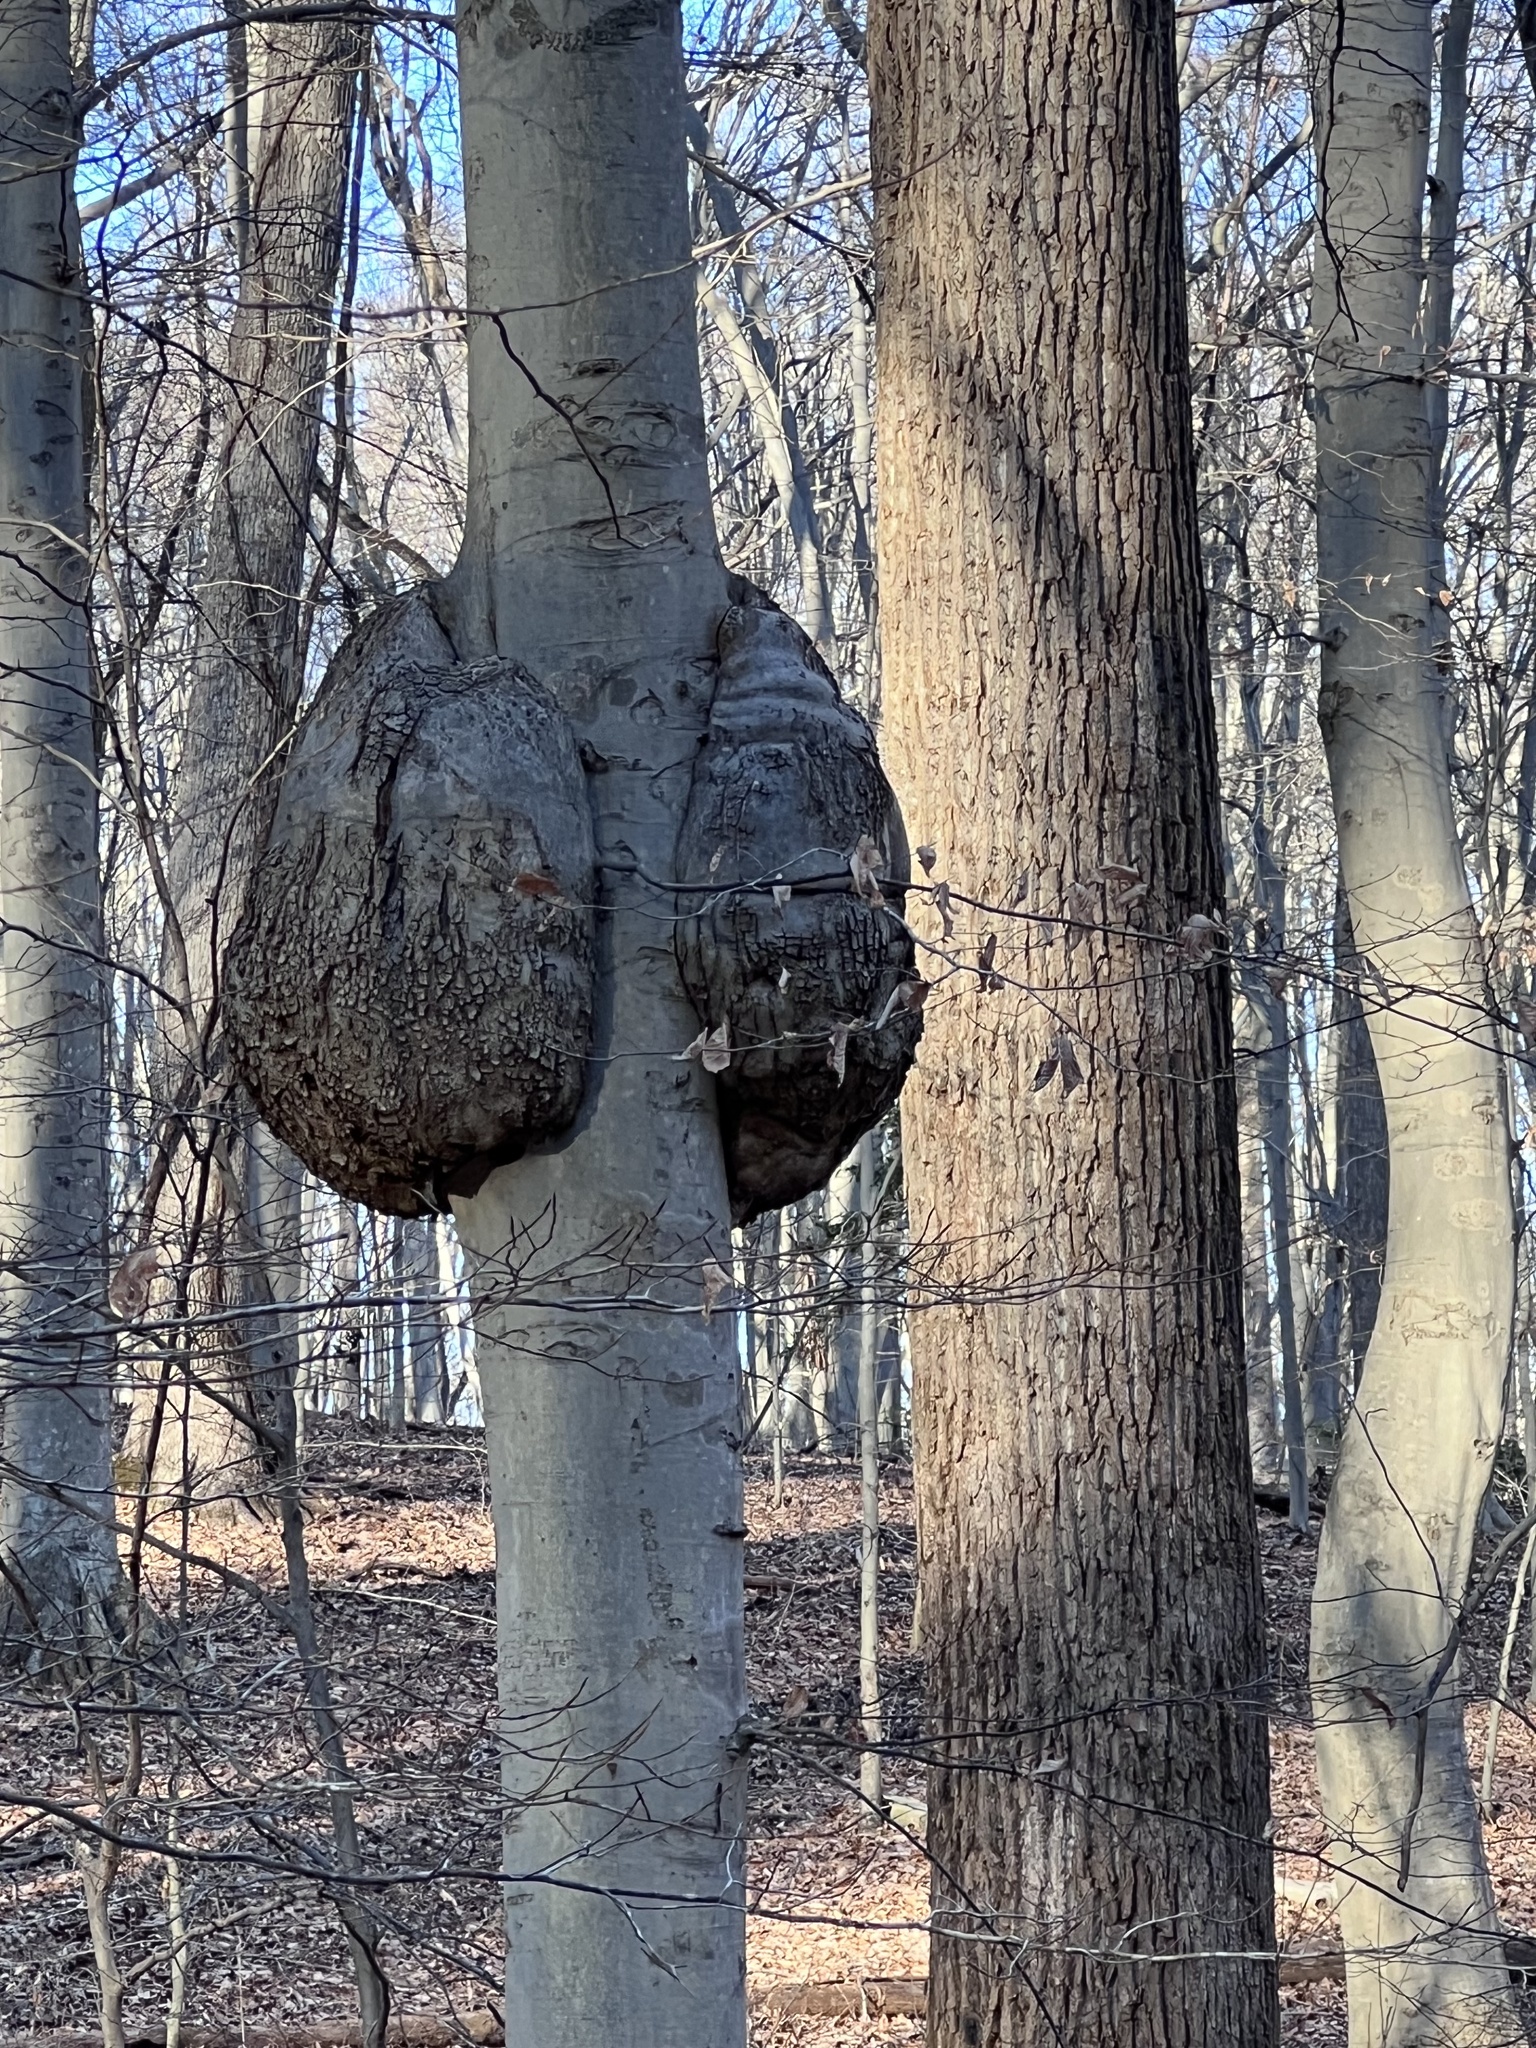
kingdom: Bacteria
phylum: Proteobacteria
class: Alphaproteobacteria
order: Rhizobiales
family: Rhizobiaceae
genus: Rhizobium
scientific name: Rhizobium Agrobacterium radiobacter
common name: Bacterial crown gall
